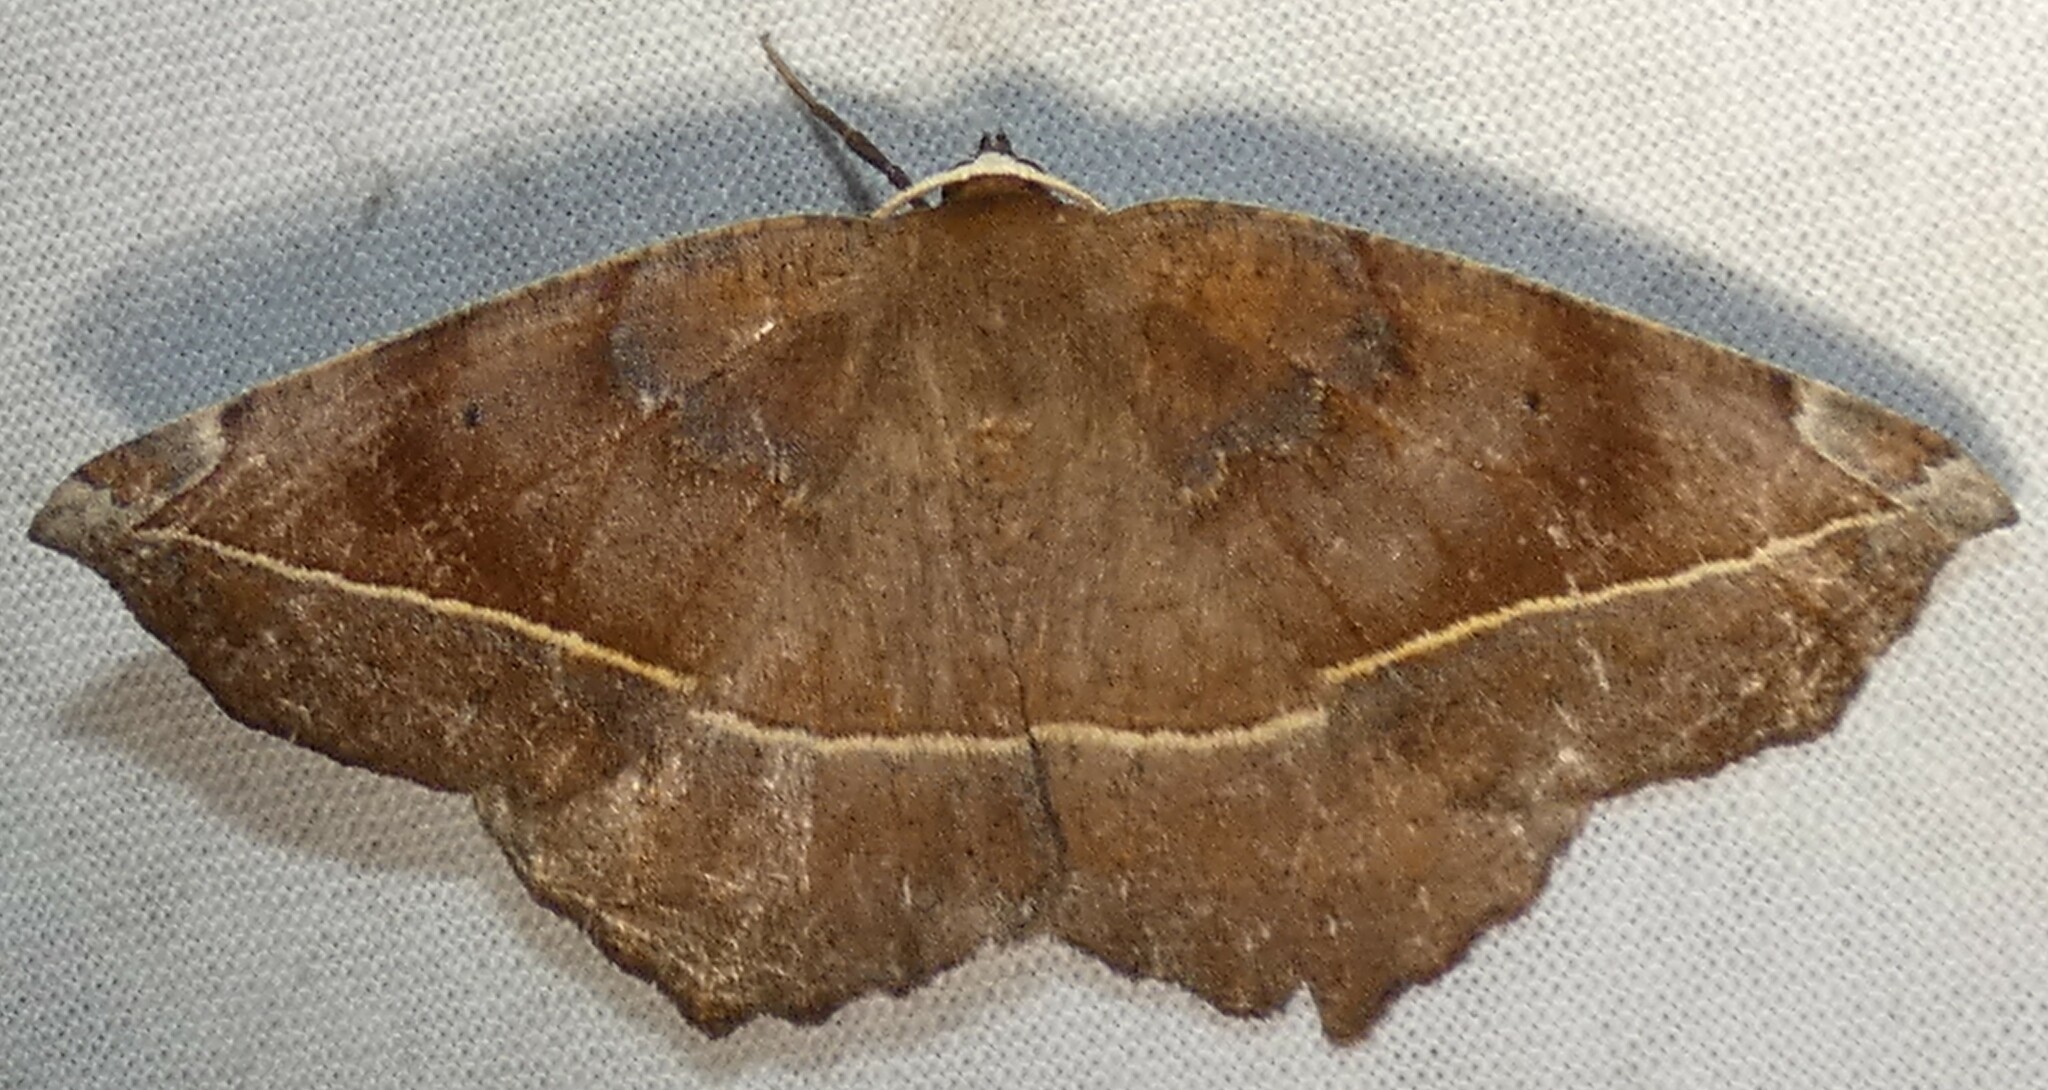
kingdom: Animalia
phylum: Arthropoda
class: Insecta
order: Lepidoptera
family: Geometridae
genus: Eutrapela
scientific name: Eutrapela clemataria
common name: Curved-toothed geometer
